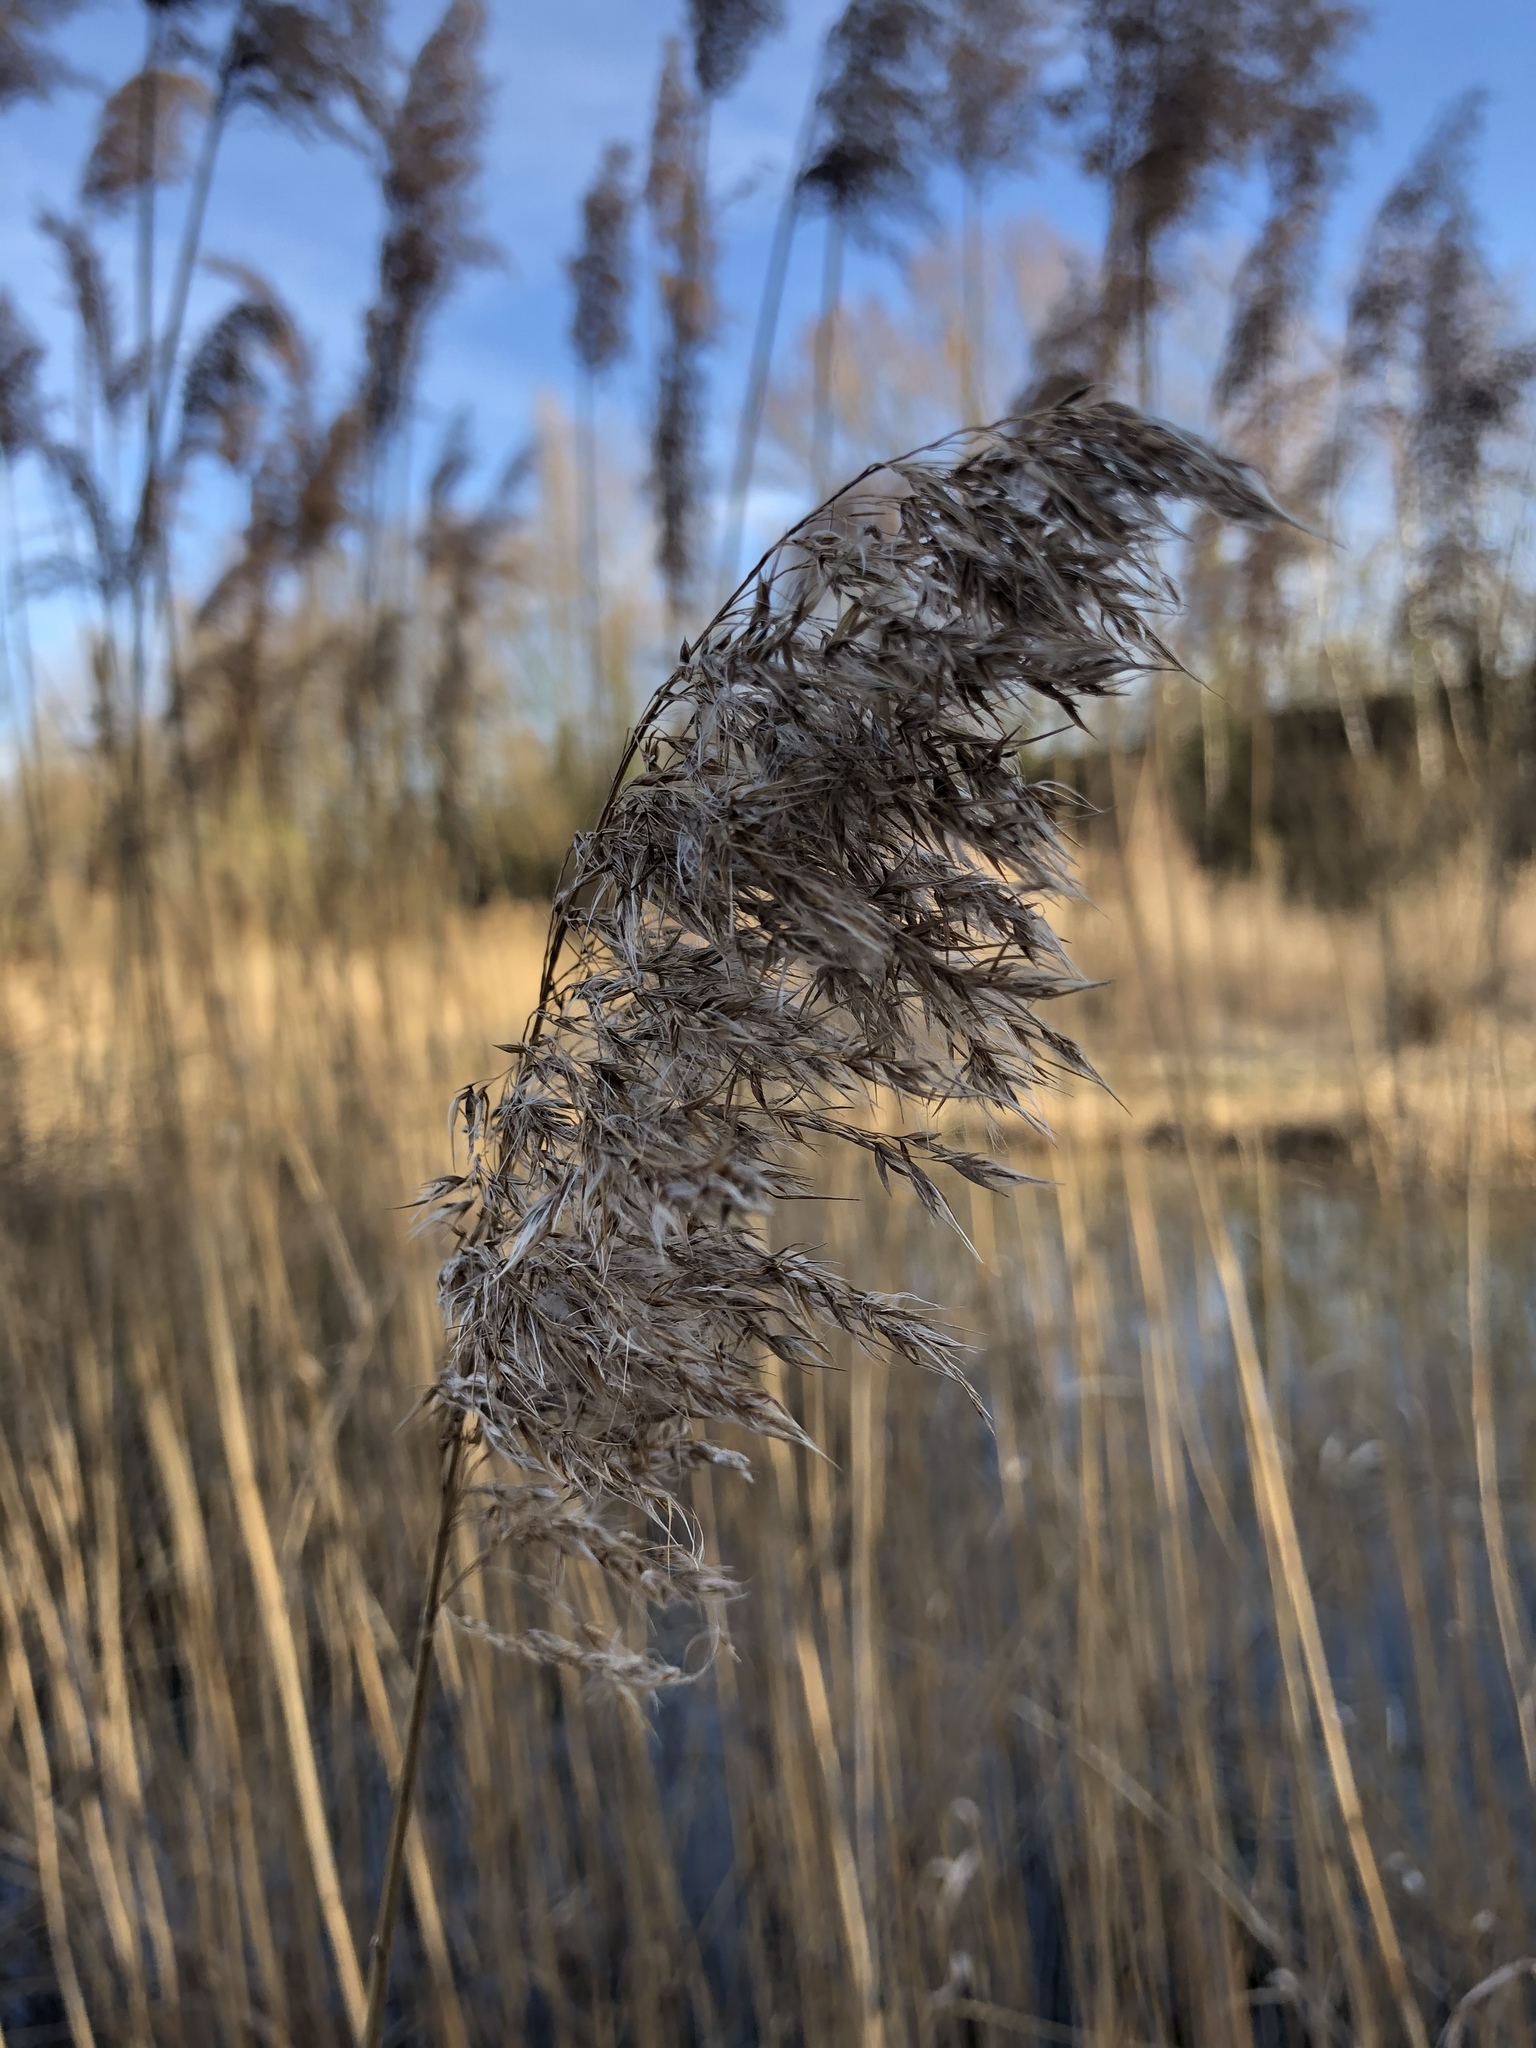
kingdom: Plantae
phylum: Tracheophyta
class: Liliopsida
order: Poales
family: Poaceae
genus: Phragmites
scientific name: Phragmites australis
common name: Common reed
